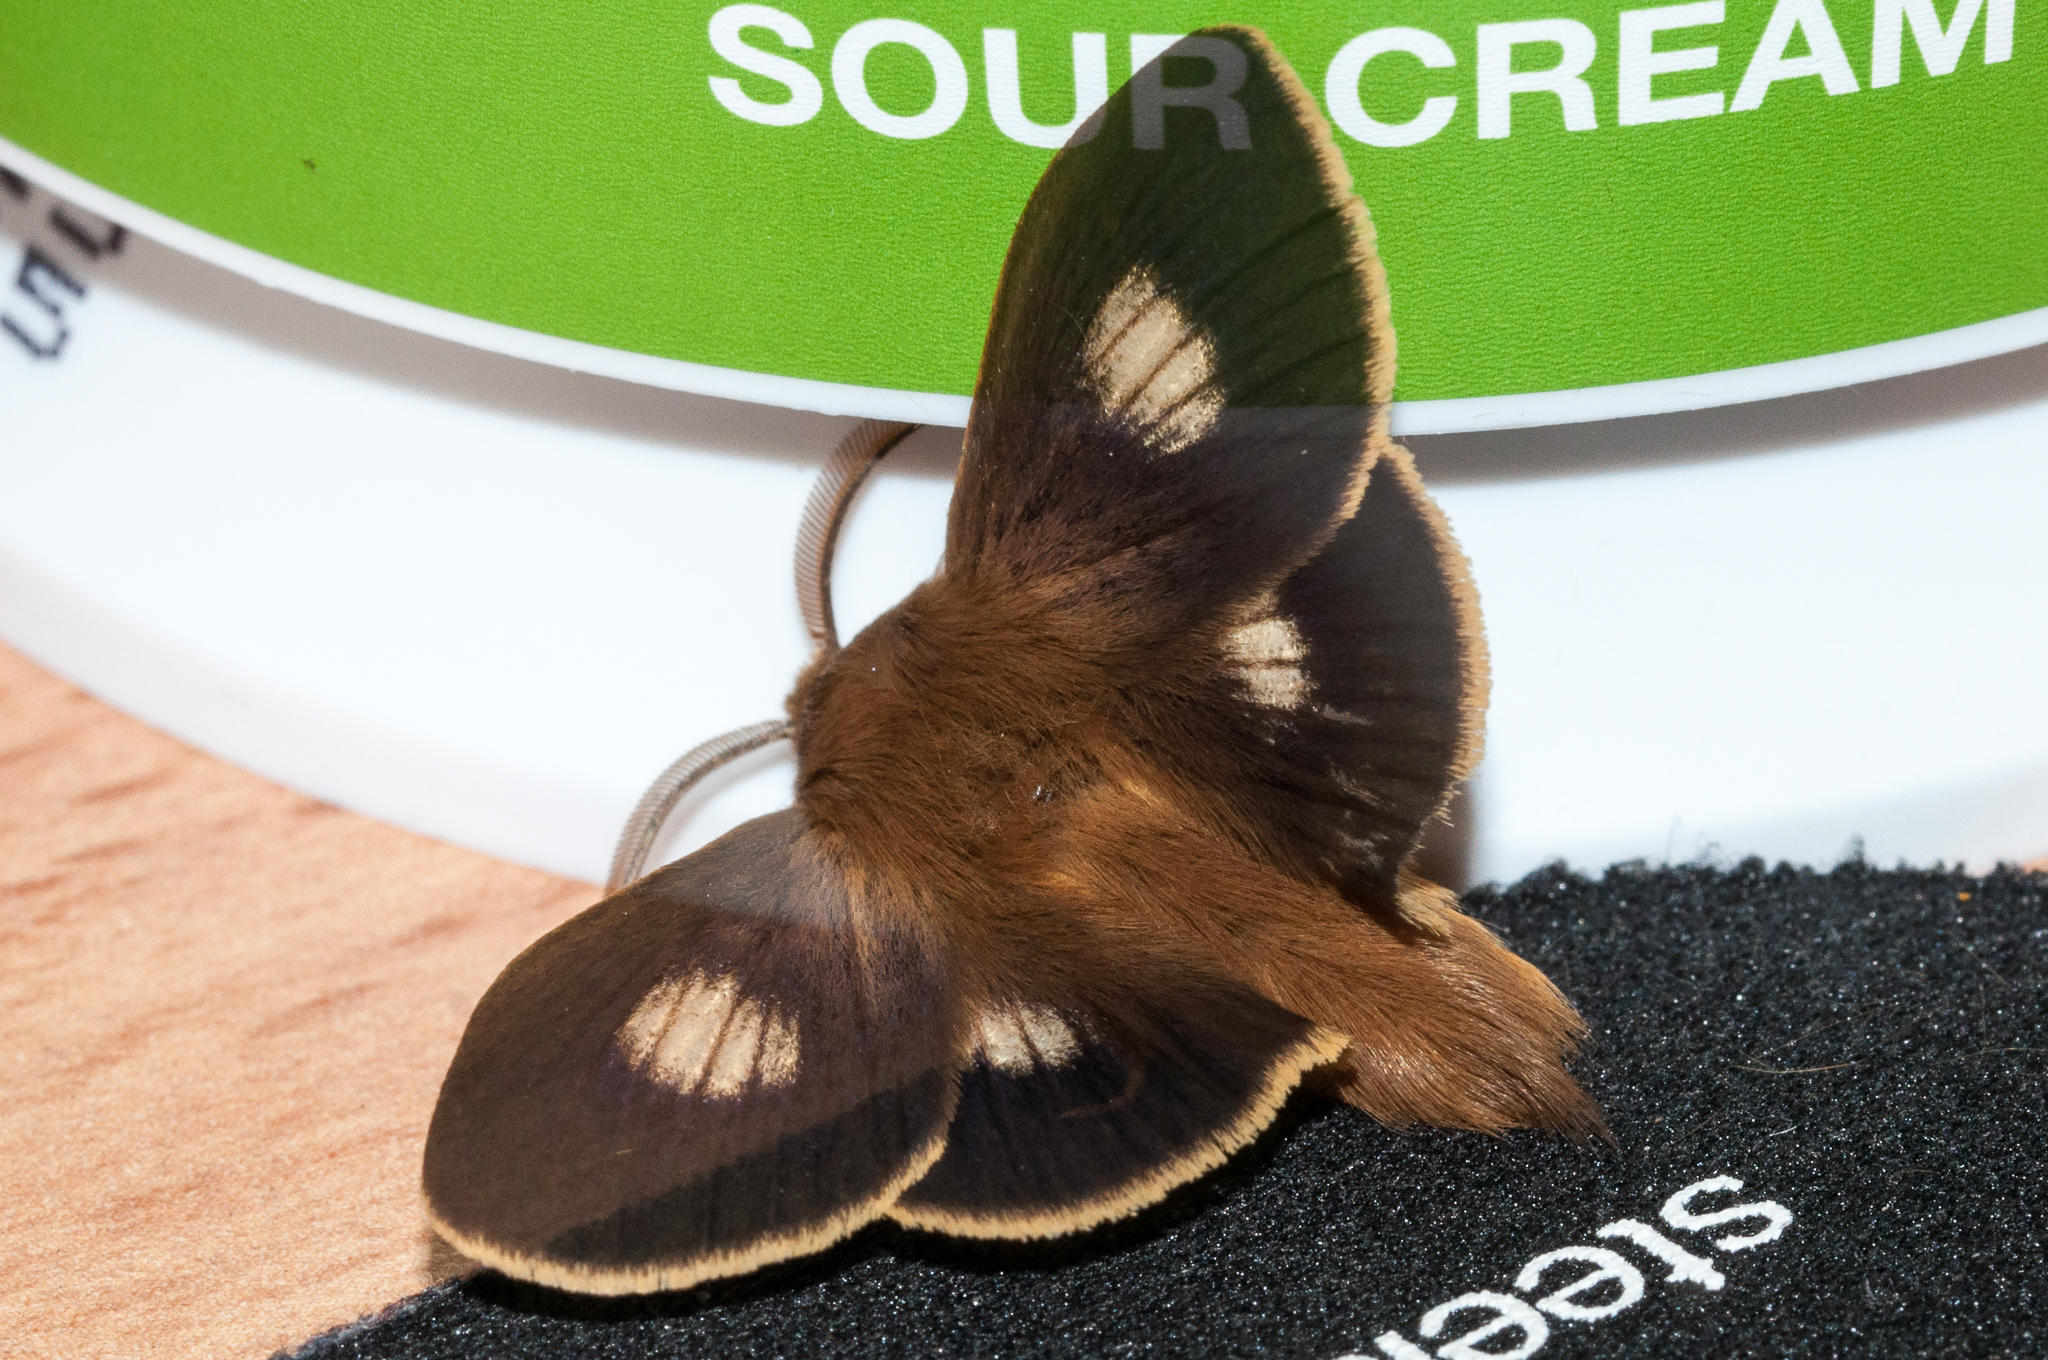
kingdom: Animalia
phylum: Arthropoda
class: Insecta
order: Lepidoptera
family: Lasiocampidae
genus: Mesocelis
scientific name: Mesocelis monticola
